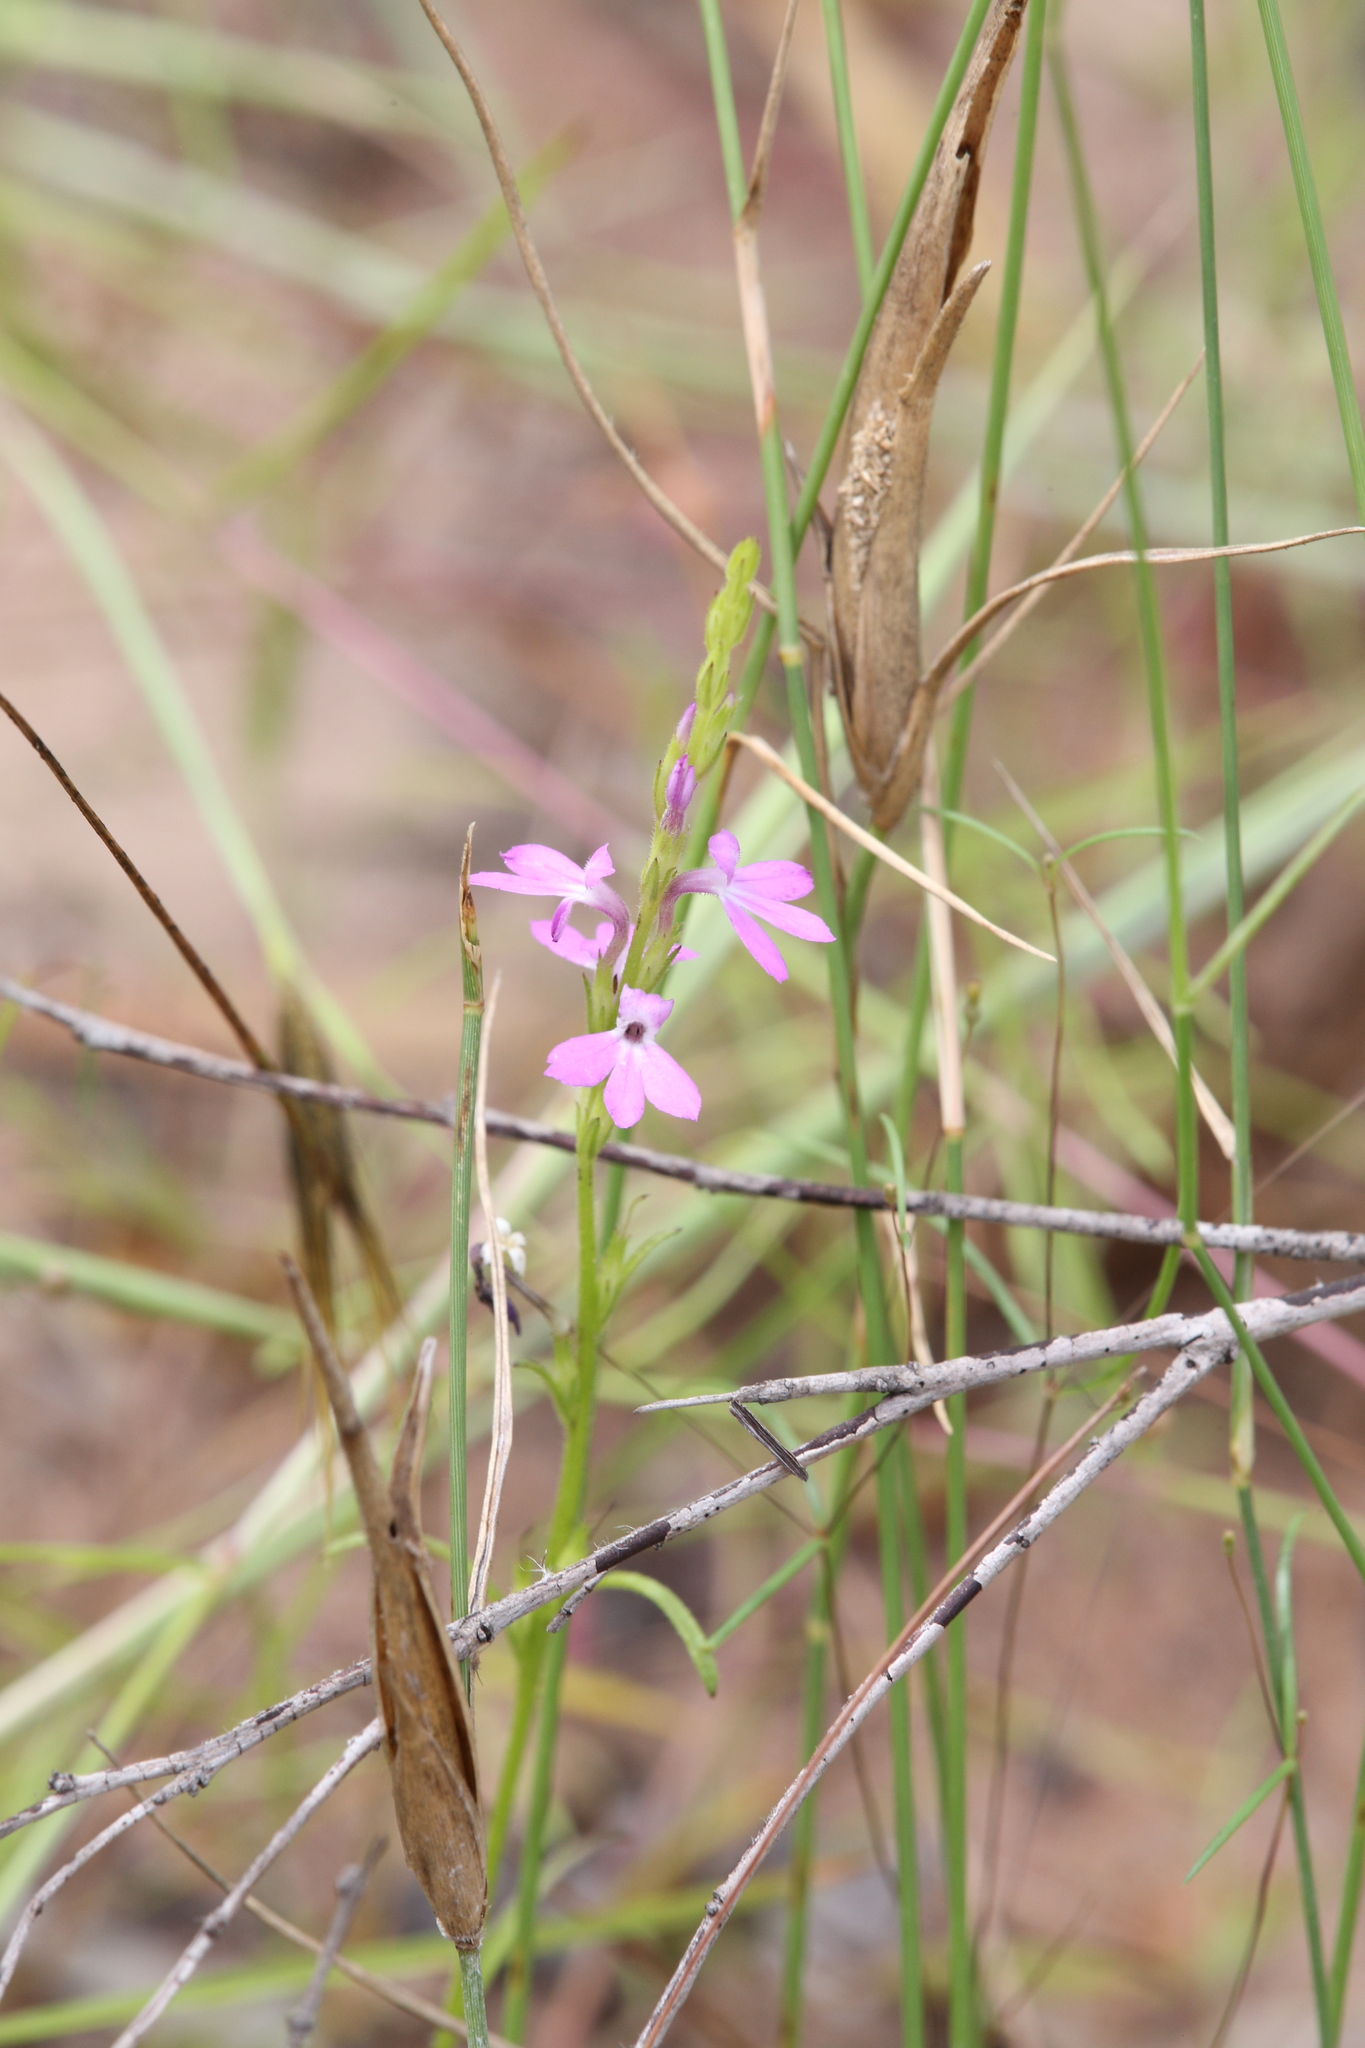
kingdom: Plantae
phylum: Tracheophyta
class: Magnoliopsida
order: Lamiales
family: Orobanchaceae
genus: Striga
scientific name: Striga curviflora
